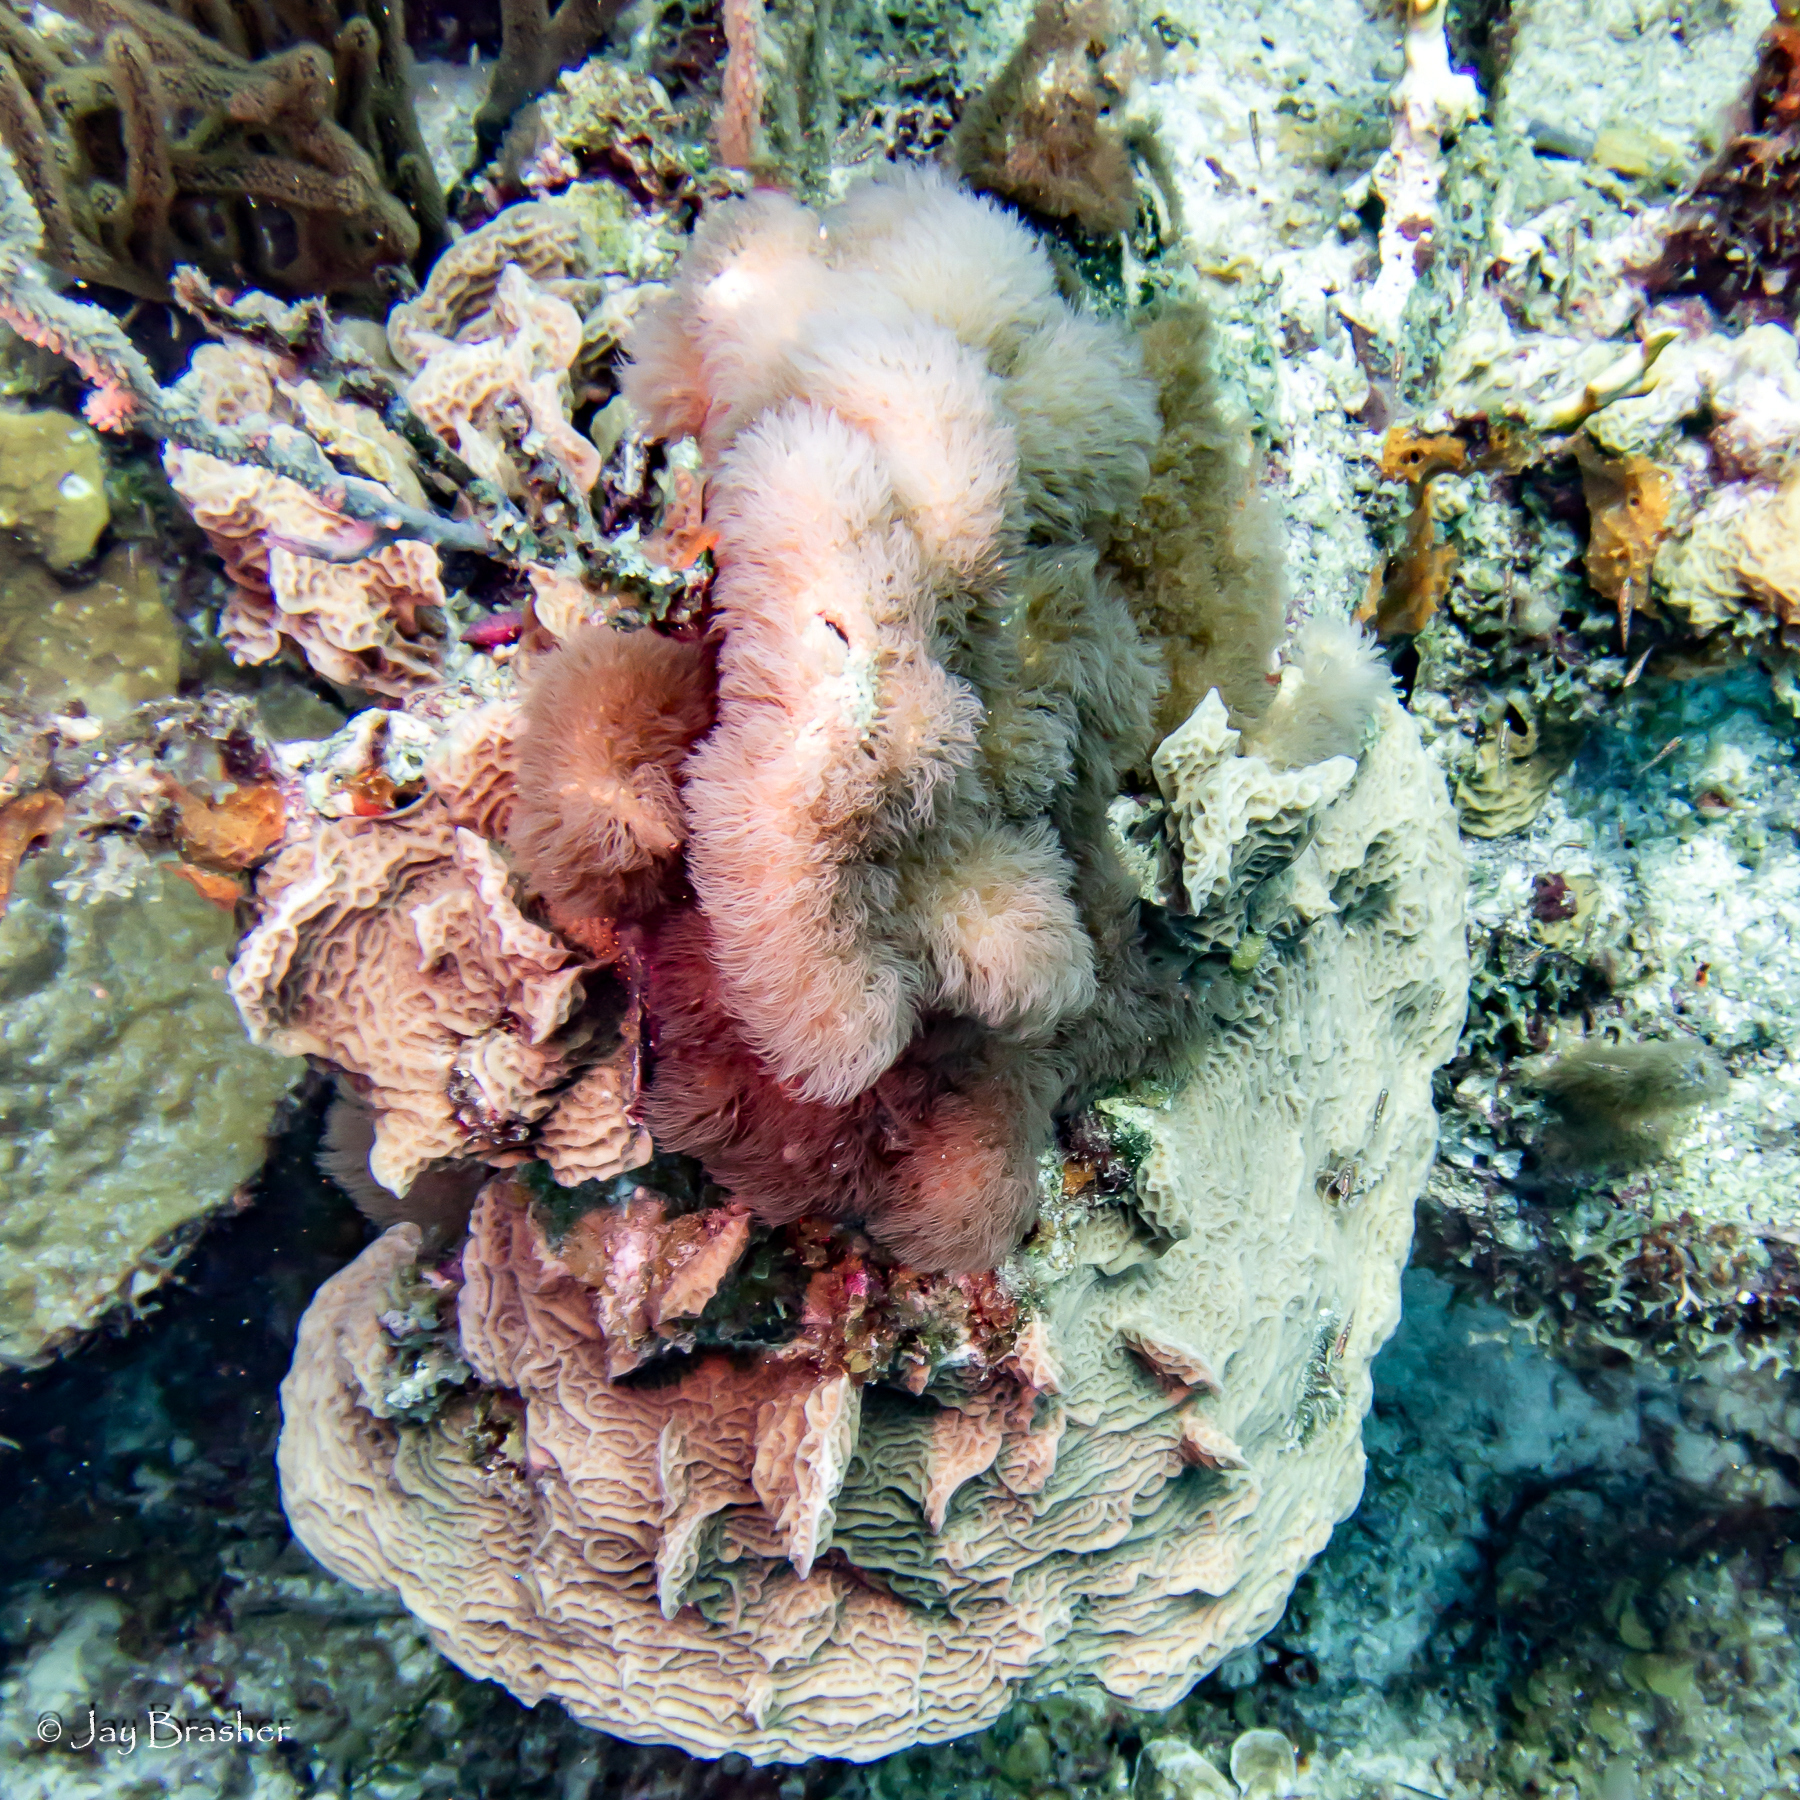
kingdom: Animalia
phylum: Cnidaria
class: Anthozoa
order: Scleralcyonacea
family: Erythropodiidae
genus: Erythropodium
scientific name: Erythropodium caribaeorum
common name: Encrusting gorgonian
